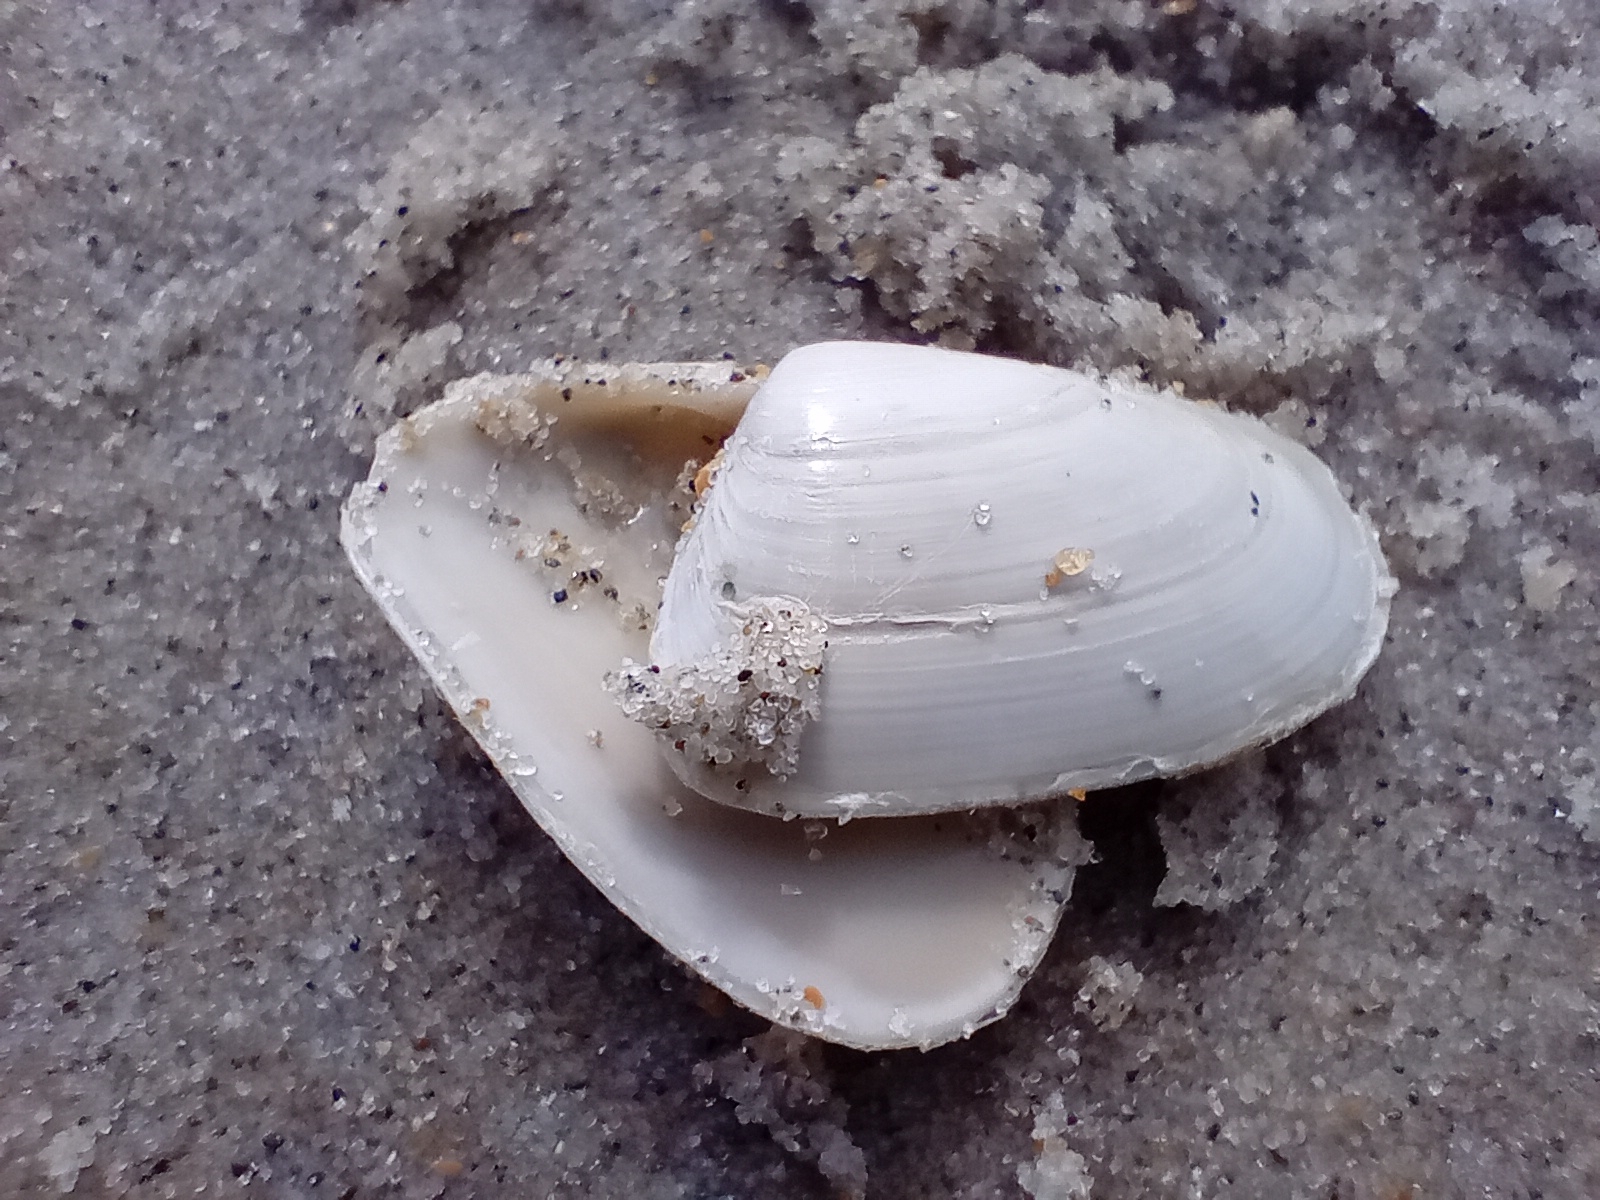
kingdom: Animalia
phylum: Mollusca
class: Bivalvia
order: Venerida
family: Mesodesmatidae
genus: Paphies
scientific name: Paphies subtriangulata
